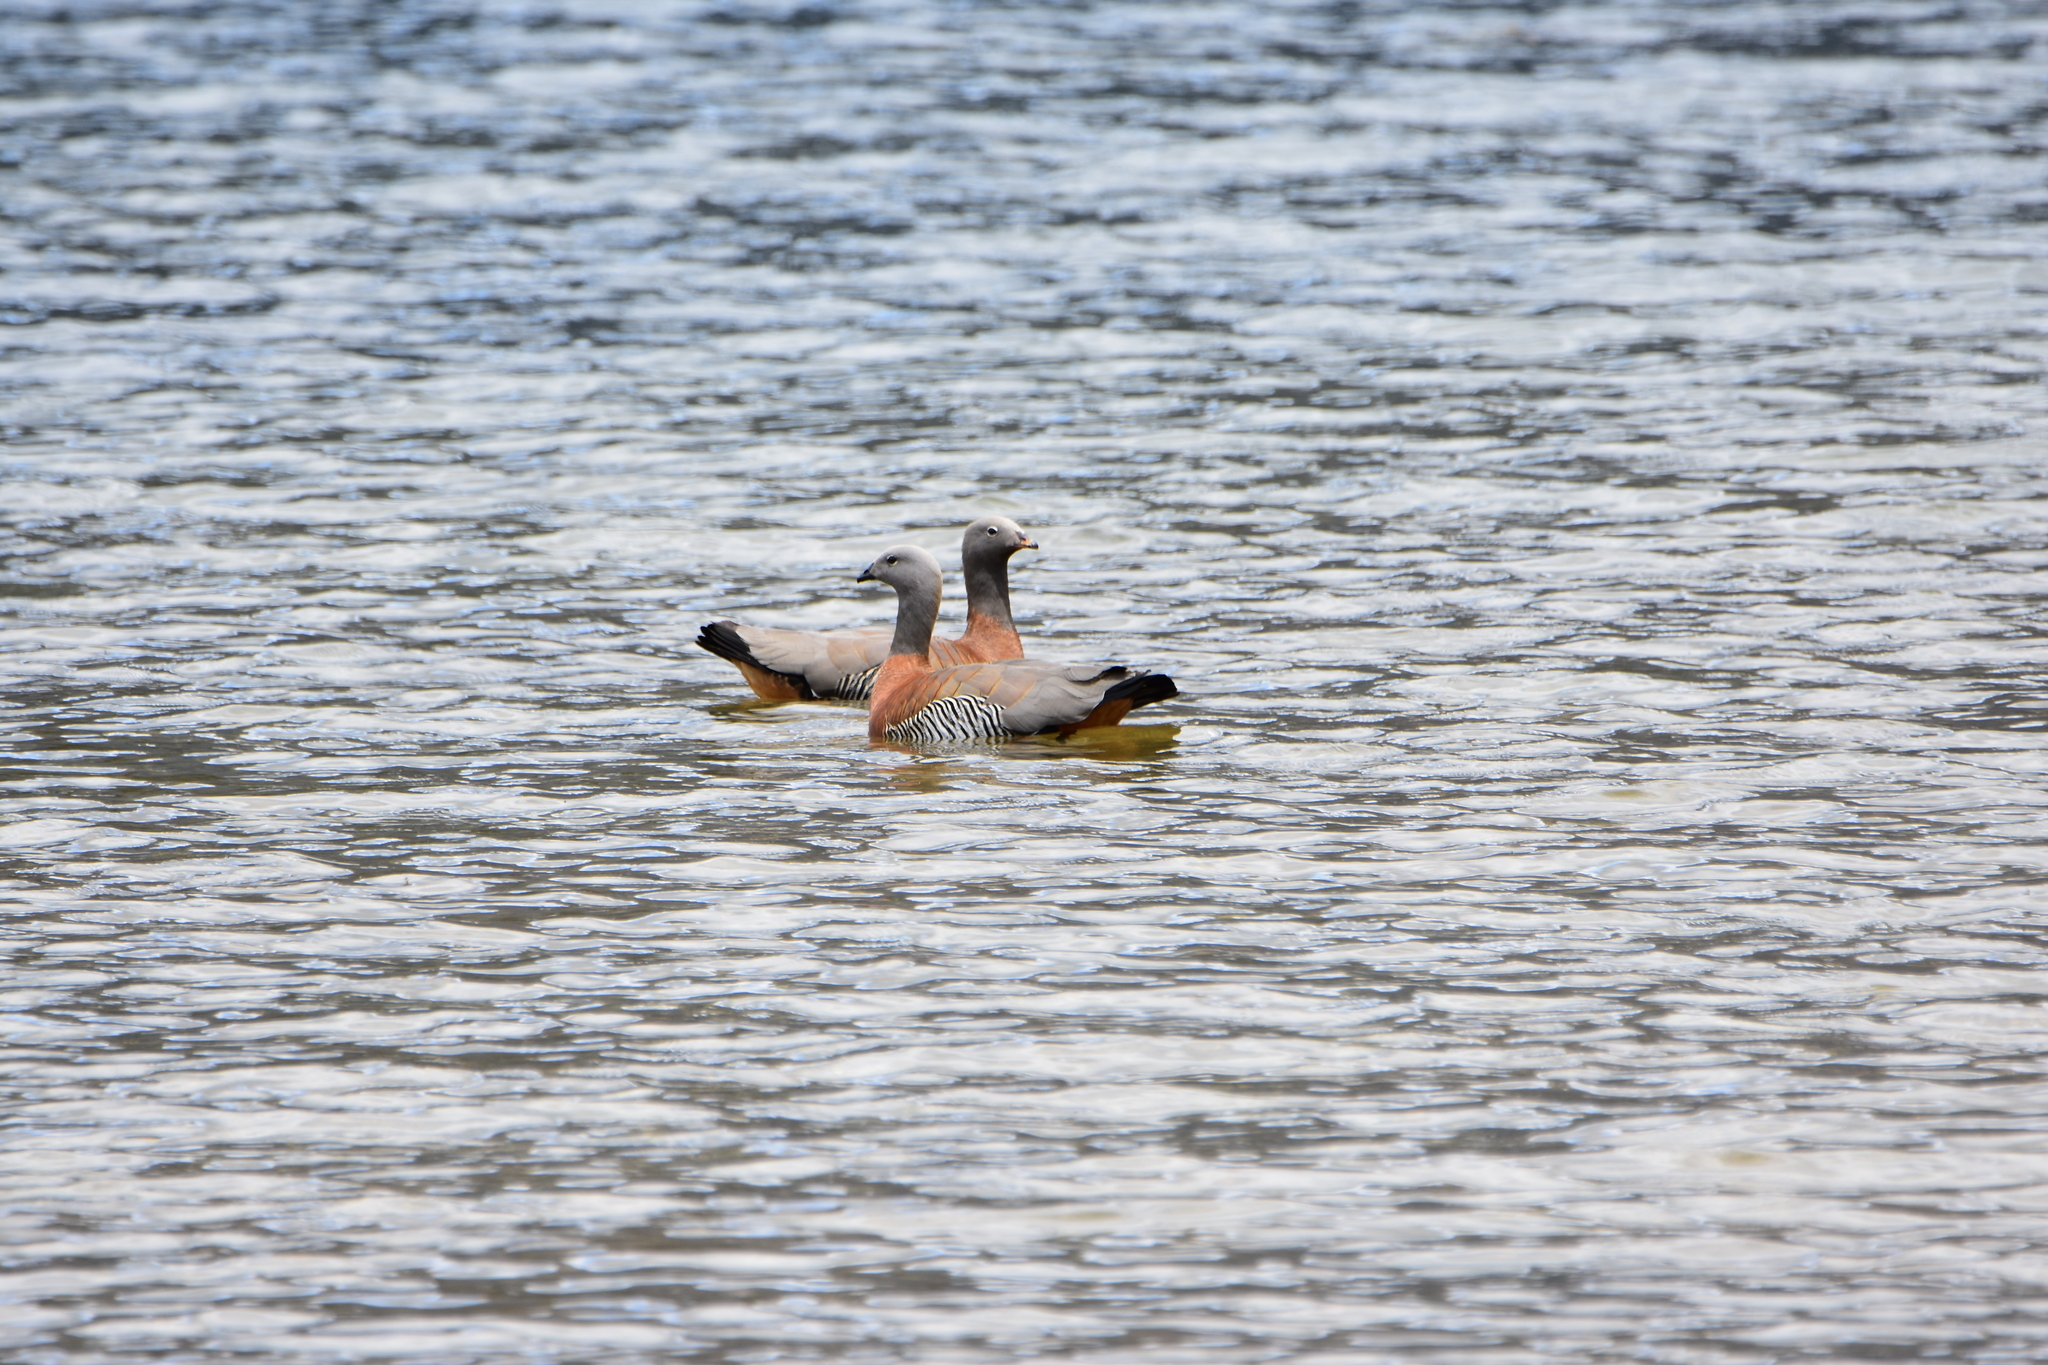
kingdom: Animalia
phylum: Chordata
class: Aves
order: Anseriformes
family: Anatidae
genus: Chloephaga
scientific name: Chloephaga poliocephala
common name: Ashy-headed goose
